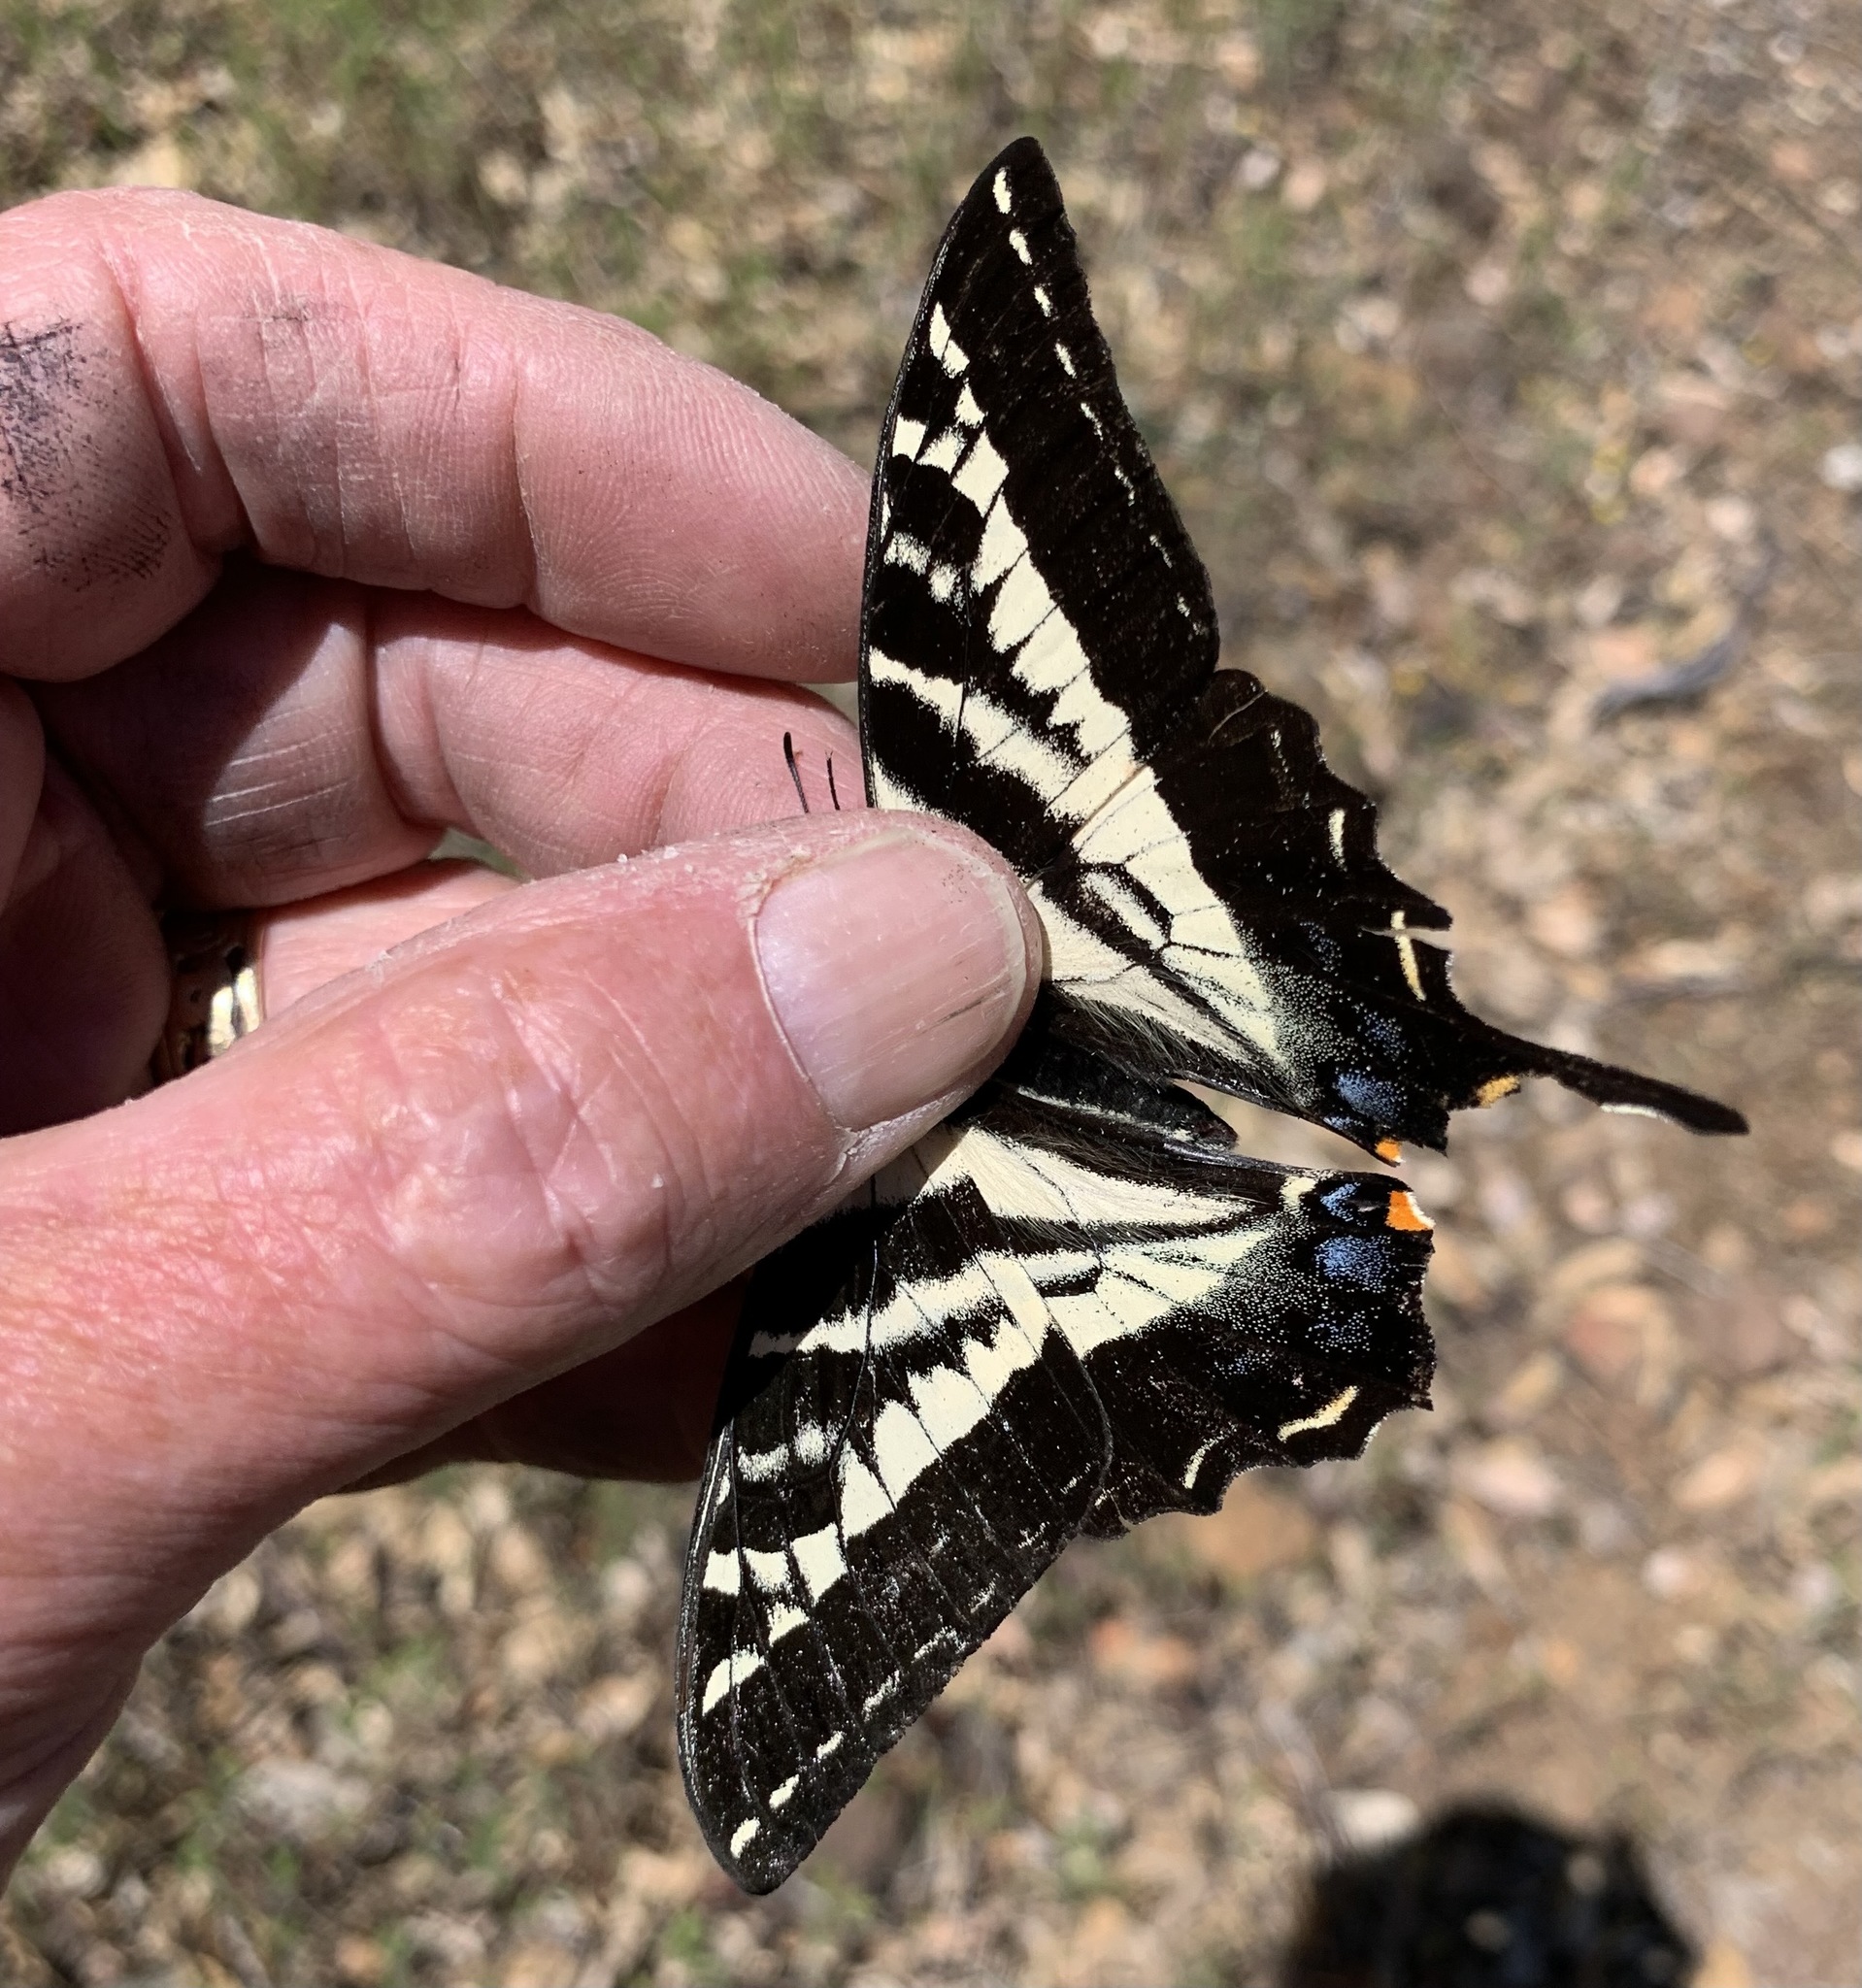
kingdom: Animalia
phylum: Arthropoda
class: Insecta
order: Lepidoptera
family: Papilionidae
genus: Papilio
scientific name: Papilio eurymedon
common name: Pale tiger swallowtail
